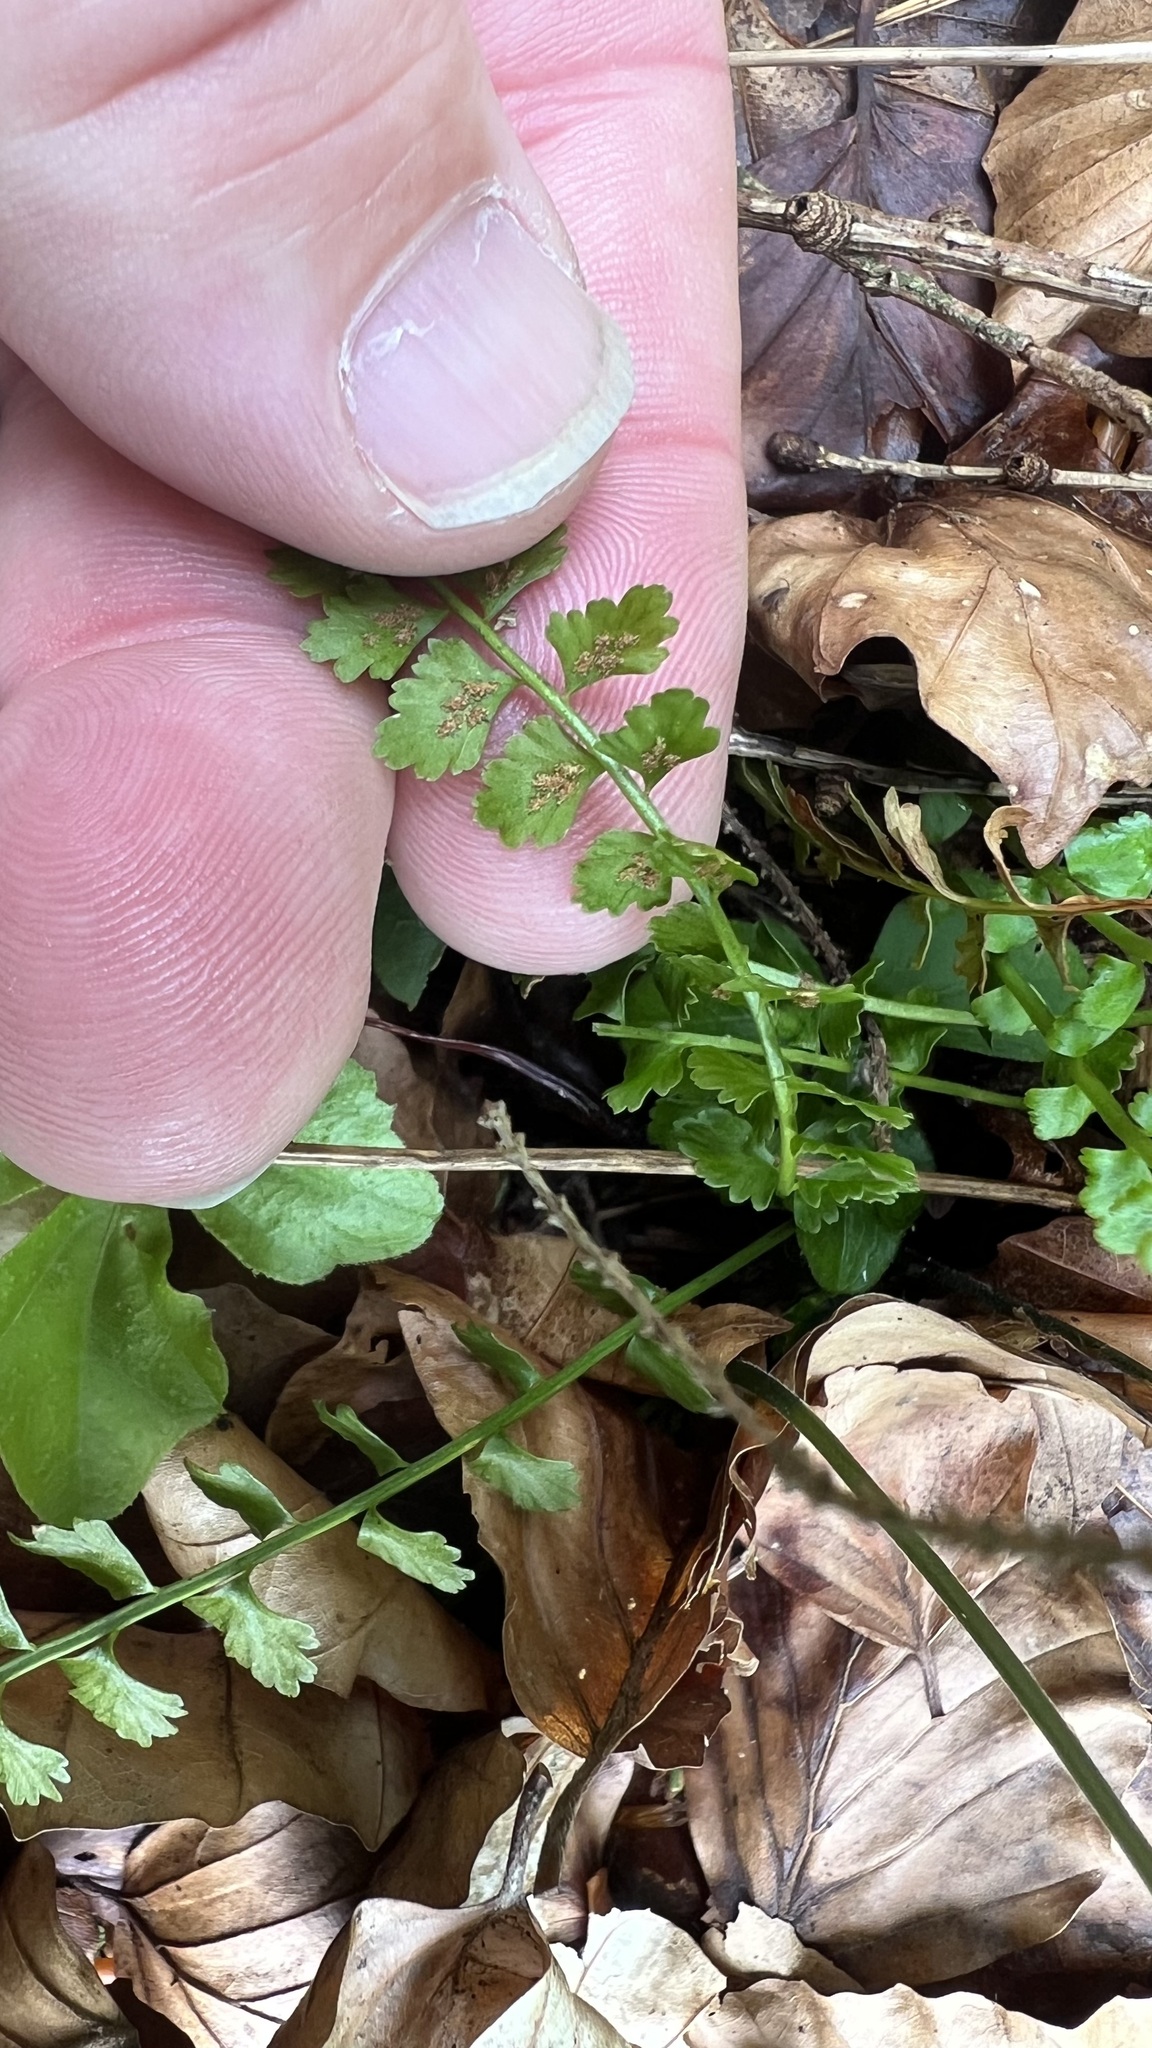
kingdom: Plantae
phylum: Tracheophyta
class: Polypodiopsida
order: Polypodiales
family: Aspleniaceae
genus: Asplenium
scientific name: Asplenium viride
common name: Green spleenwort
